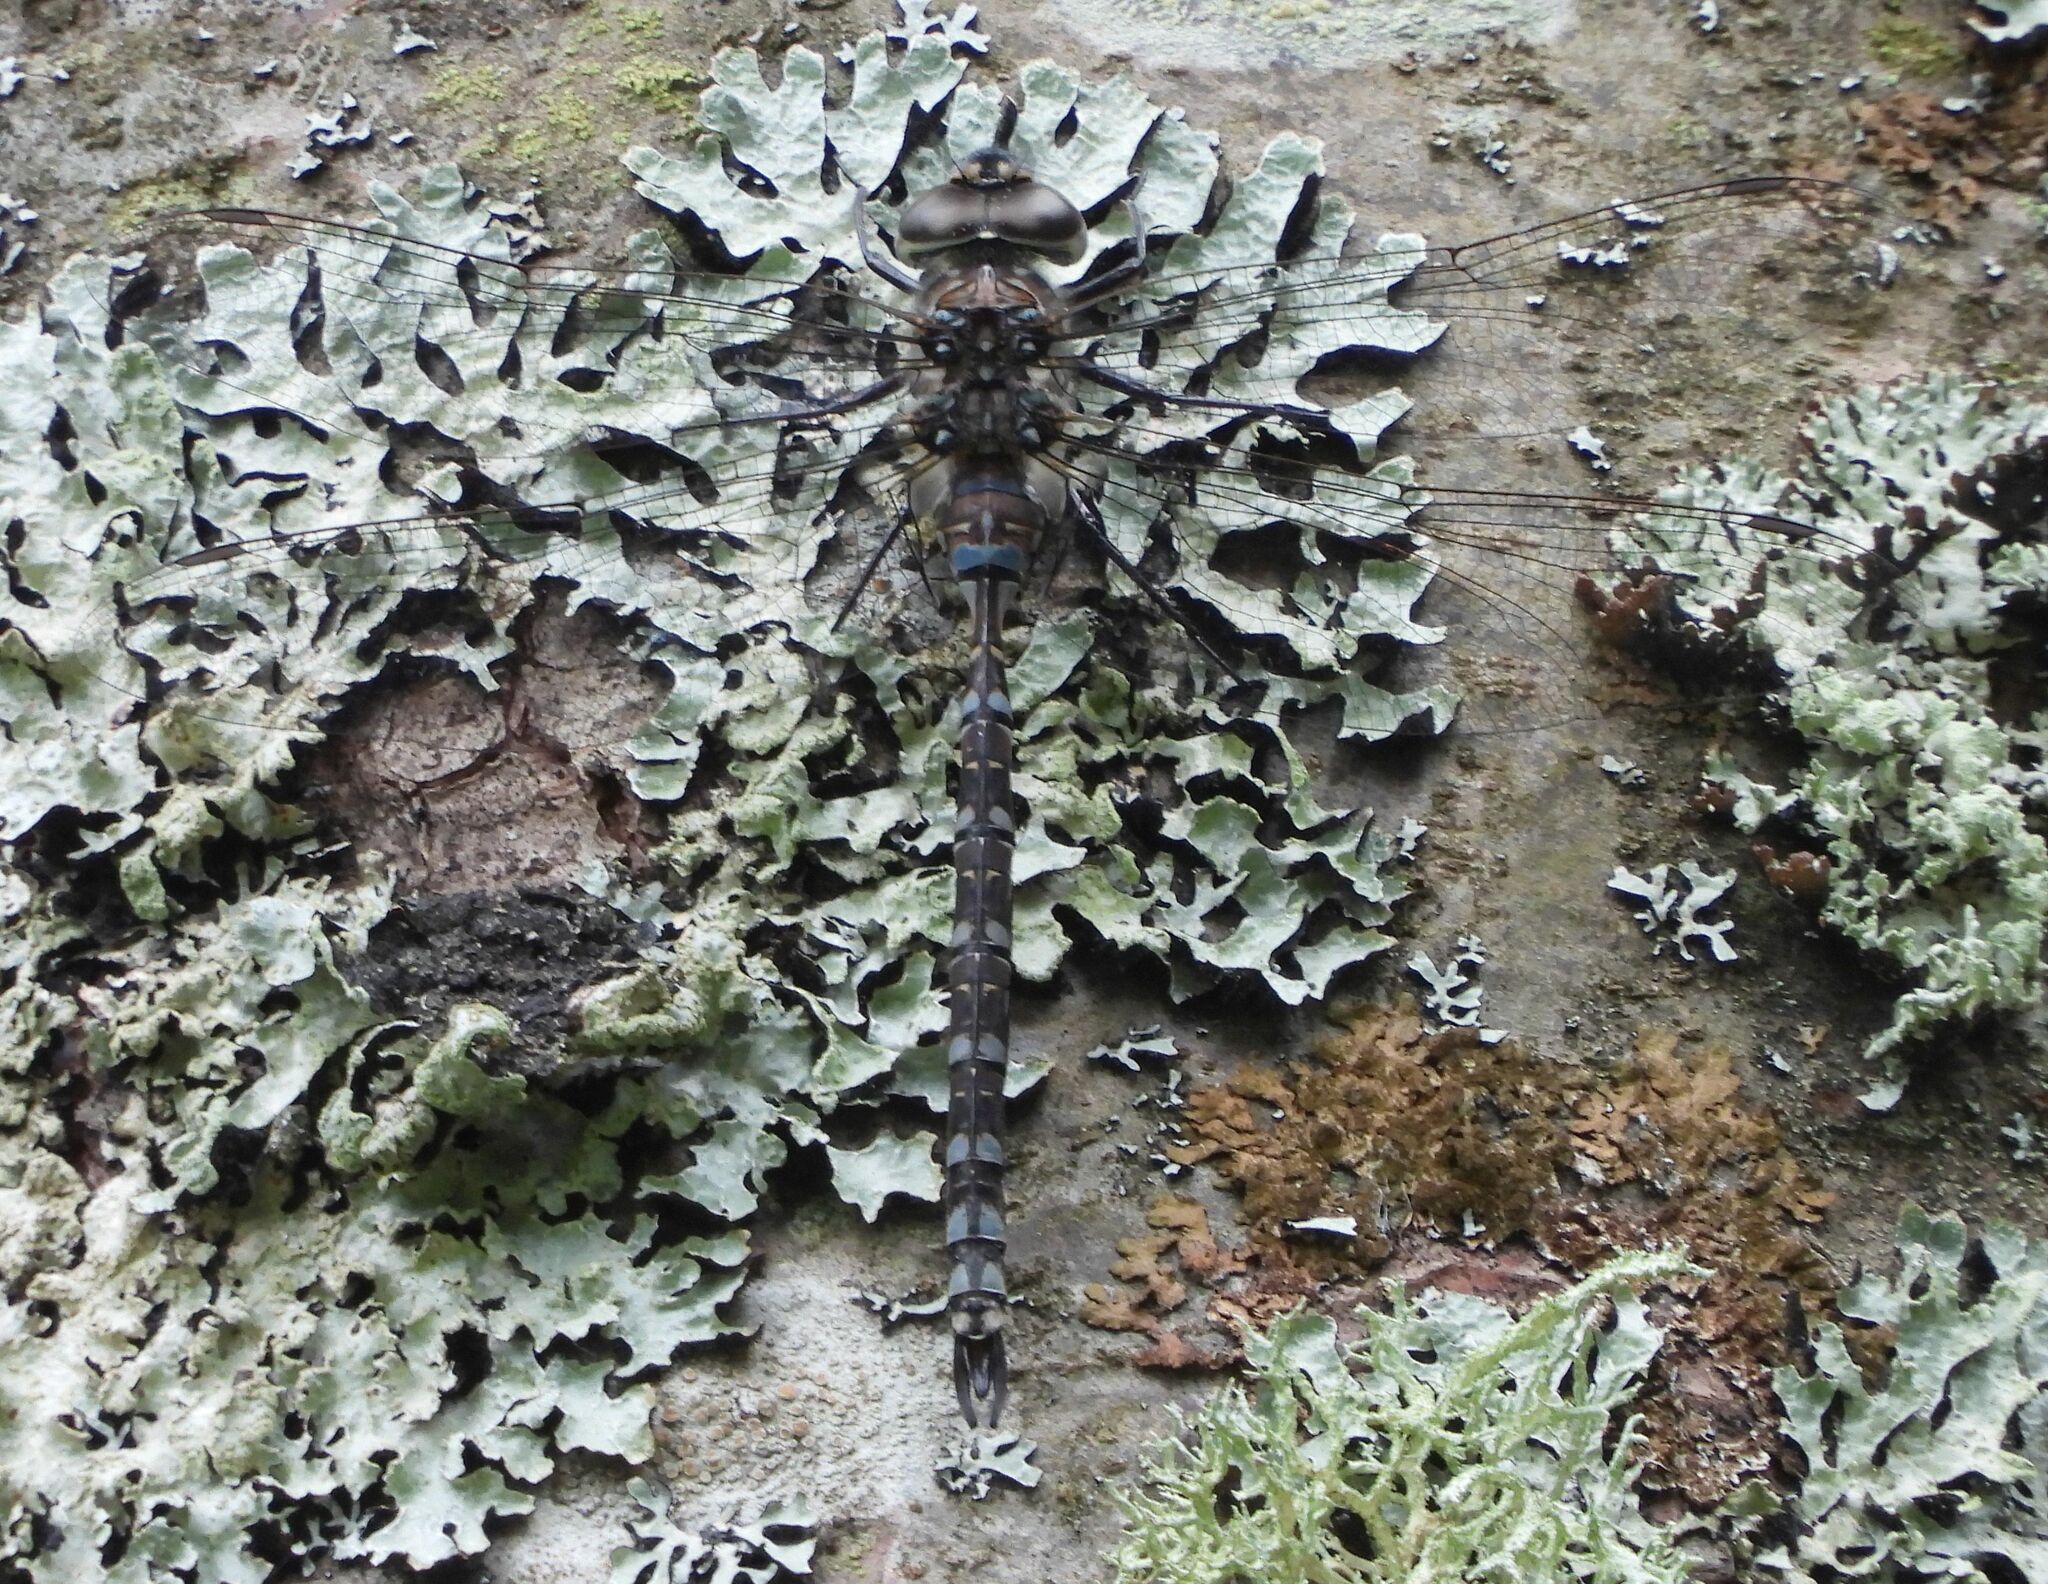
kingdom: Animalia
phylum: Arthropoda
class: Insecta
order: Odonata
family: Aeshnidae
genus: Aeshna
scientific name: Aeshna canadensis
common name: Canada darner
